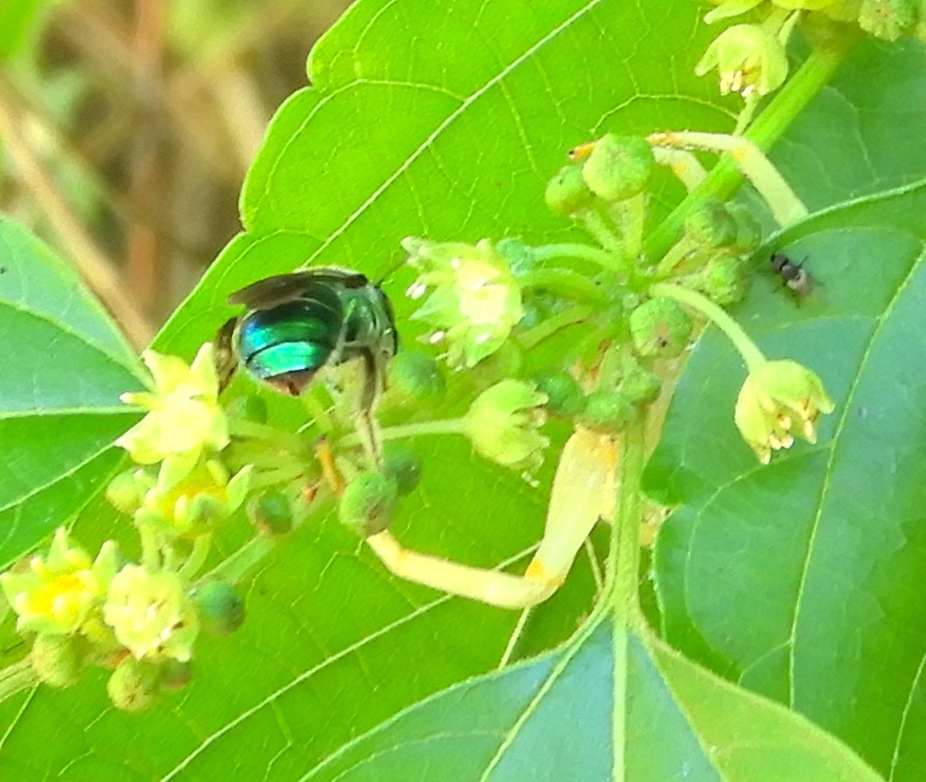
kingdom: Animalia
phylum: Arthropoda
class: Insecta
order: Hymenoptera
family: Halictidae
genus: Augochloropsis
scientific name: Augochloropsis
